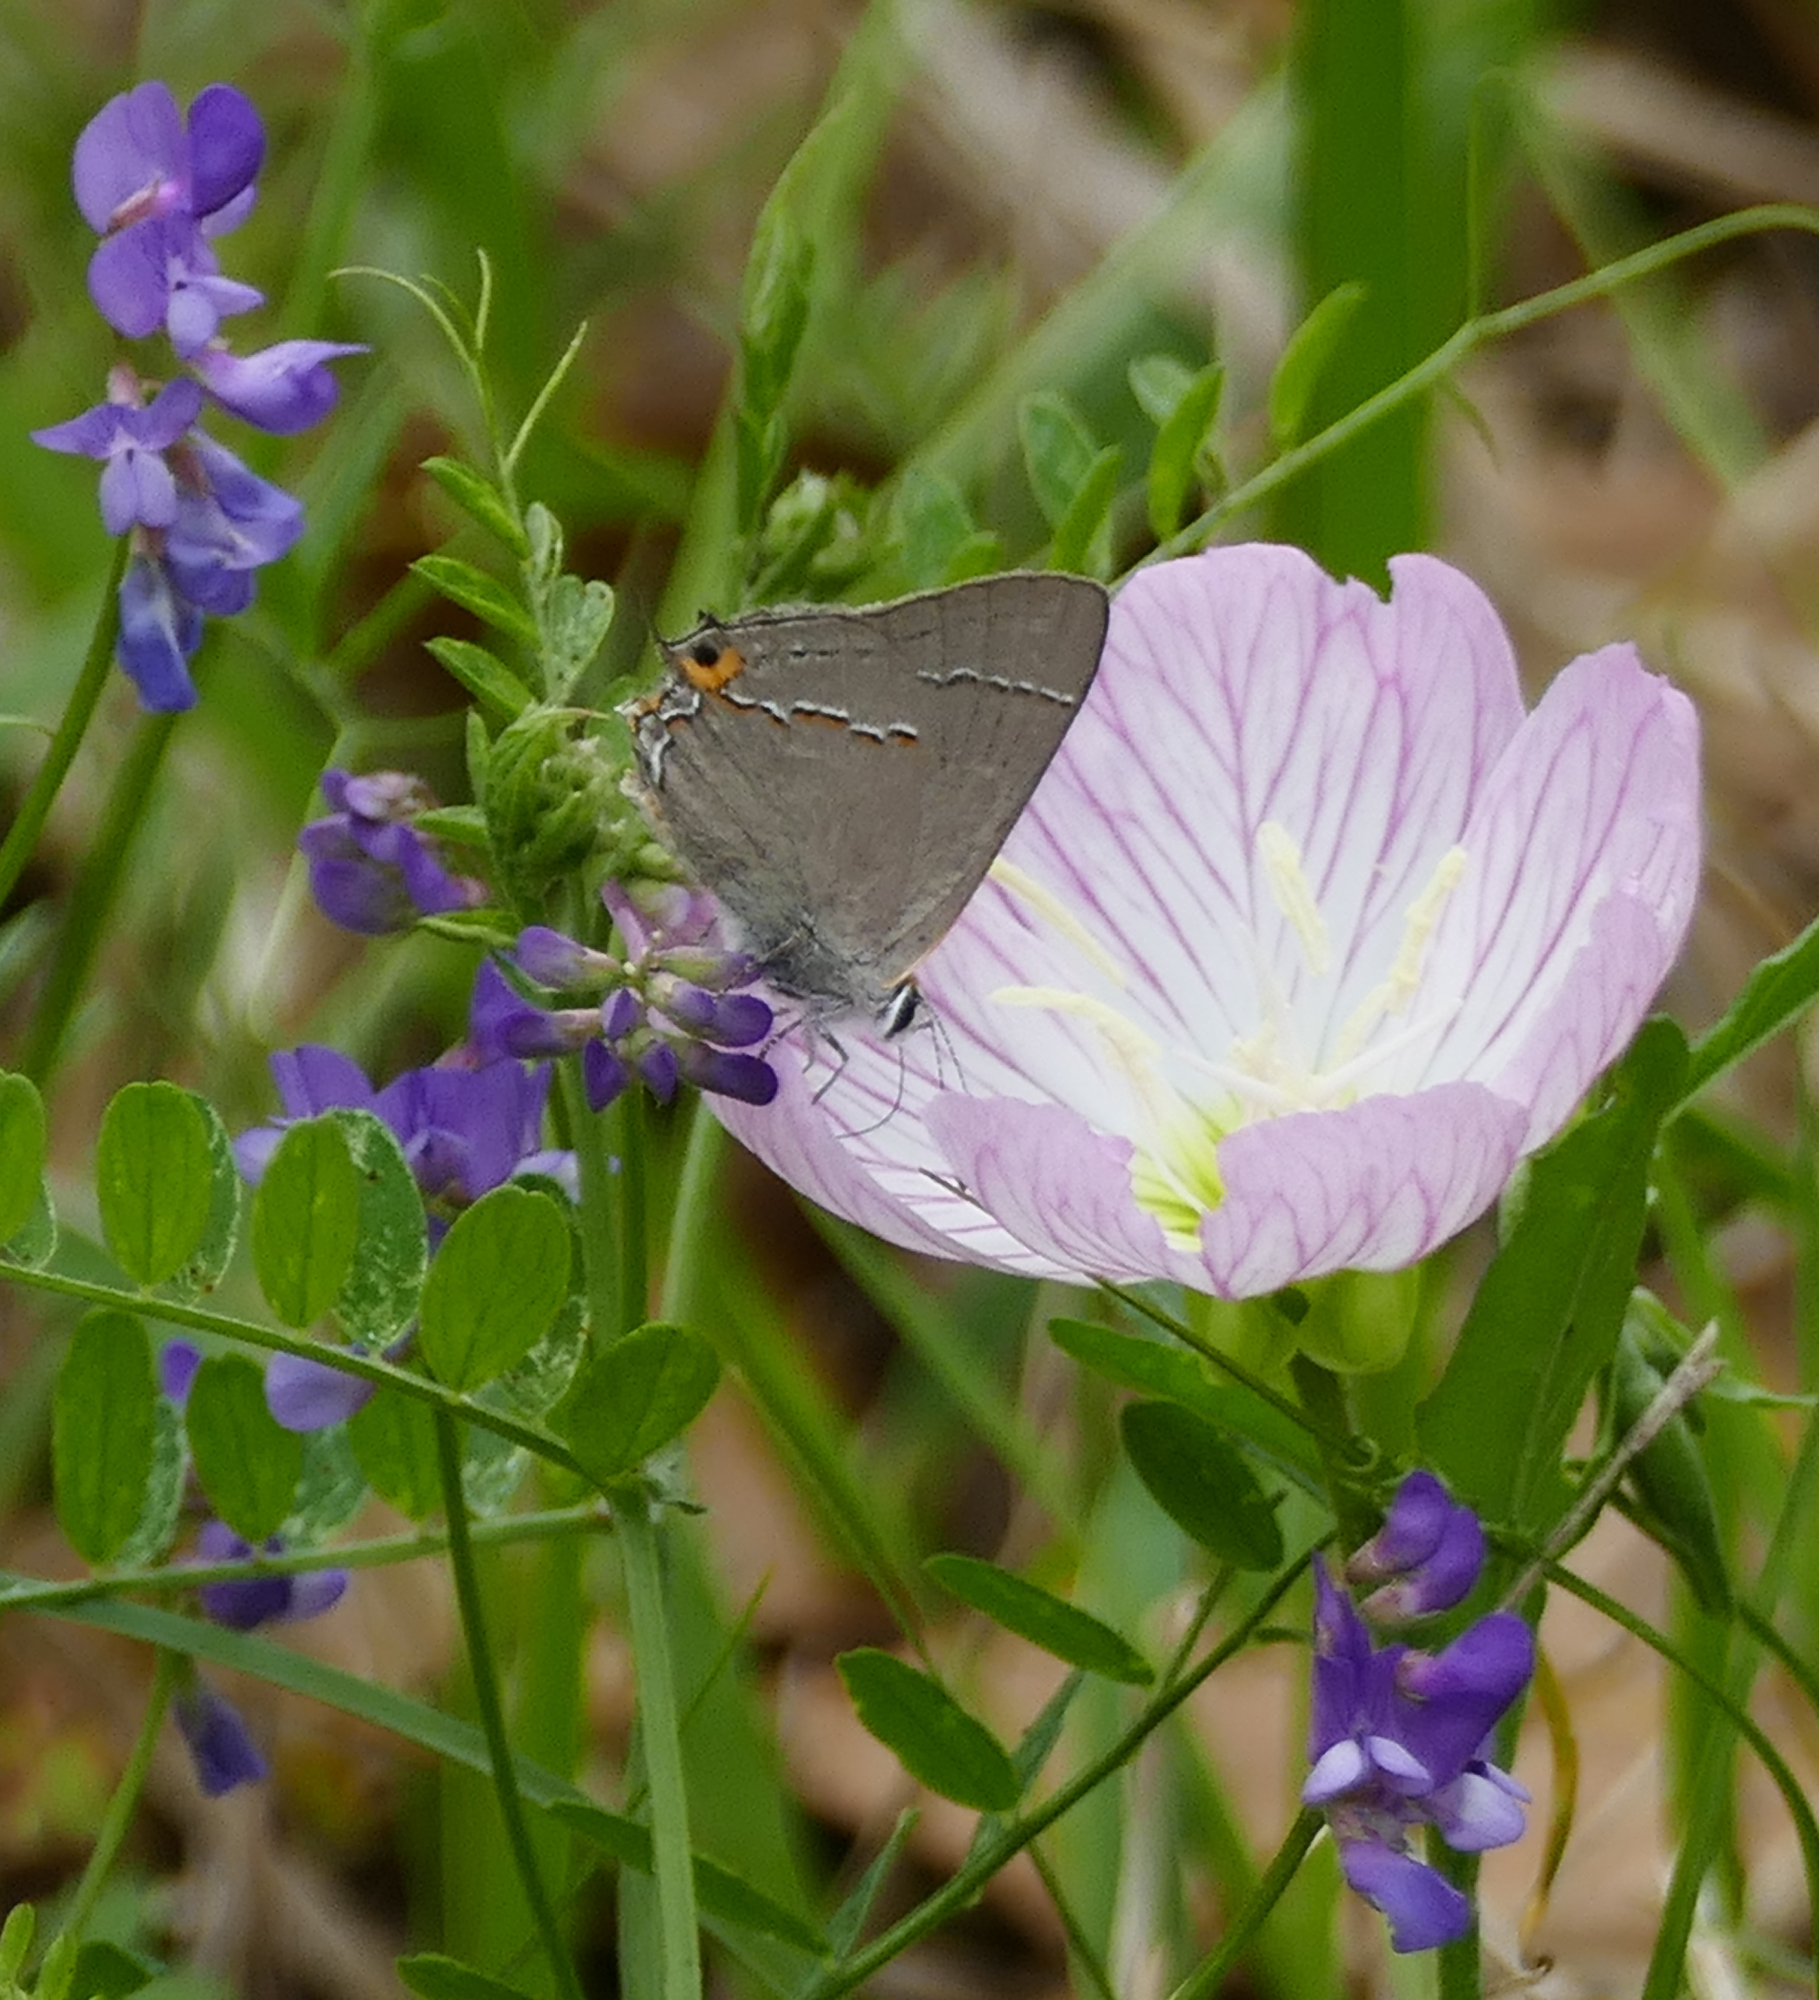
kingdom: Animalia
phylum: Arthropoda
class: Insecta
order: Lepidoptera
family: Lycaenidae
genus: Strymon
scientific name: Strymon melinus
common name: Gray hairstreak
